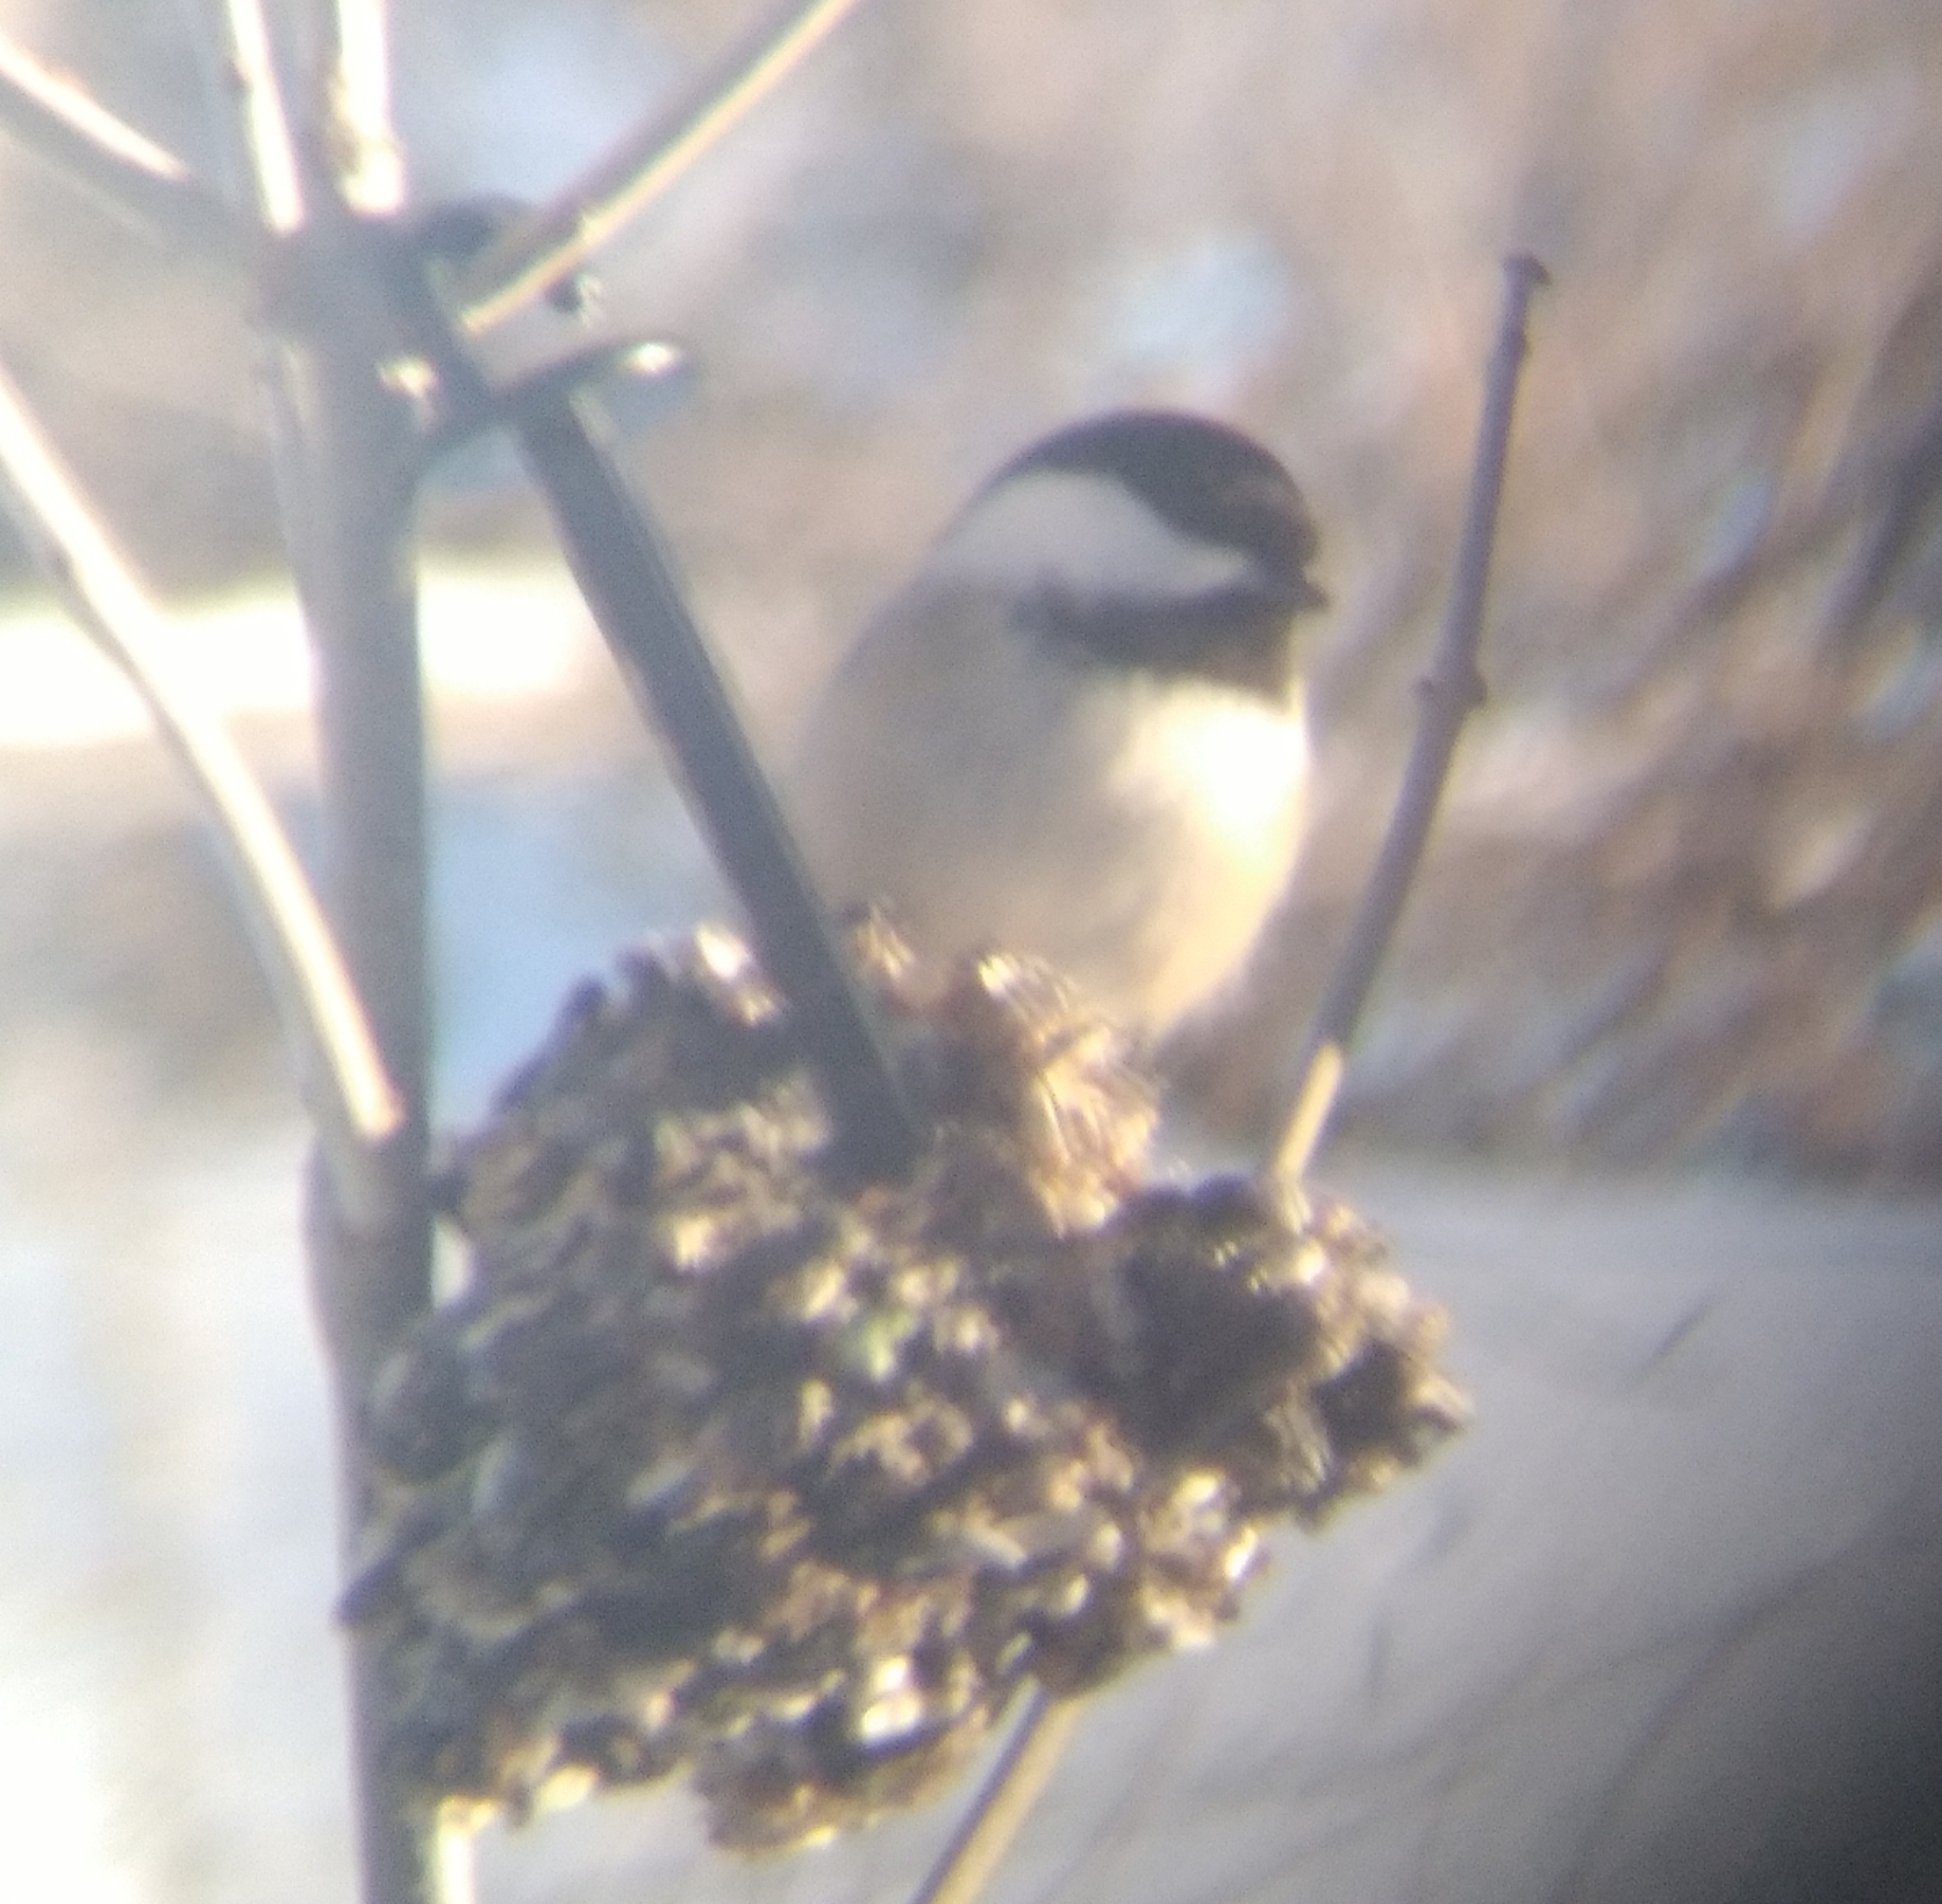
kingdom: Animalia
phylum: Chordata
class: Aves
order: Passeriformes
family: Paridae
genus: Poecile
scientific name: Poecile atricapillus
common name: Black-capped chickadee
